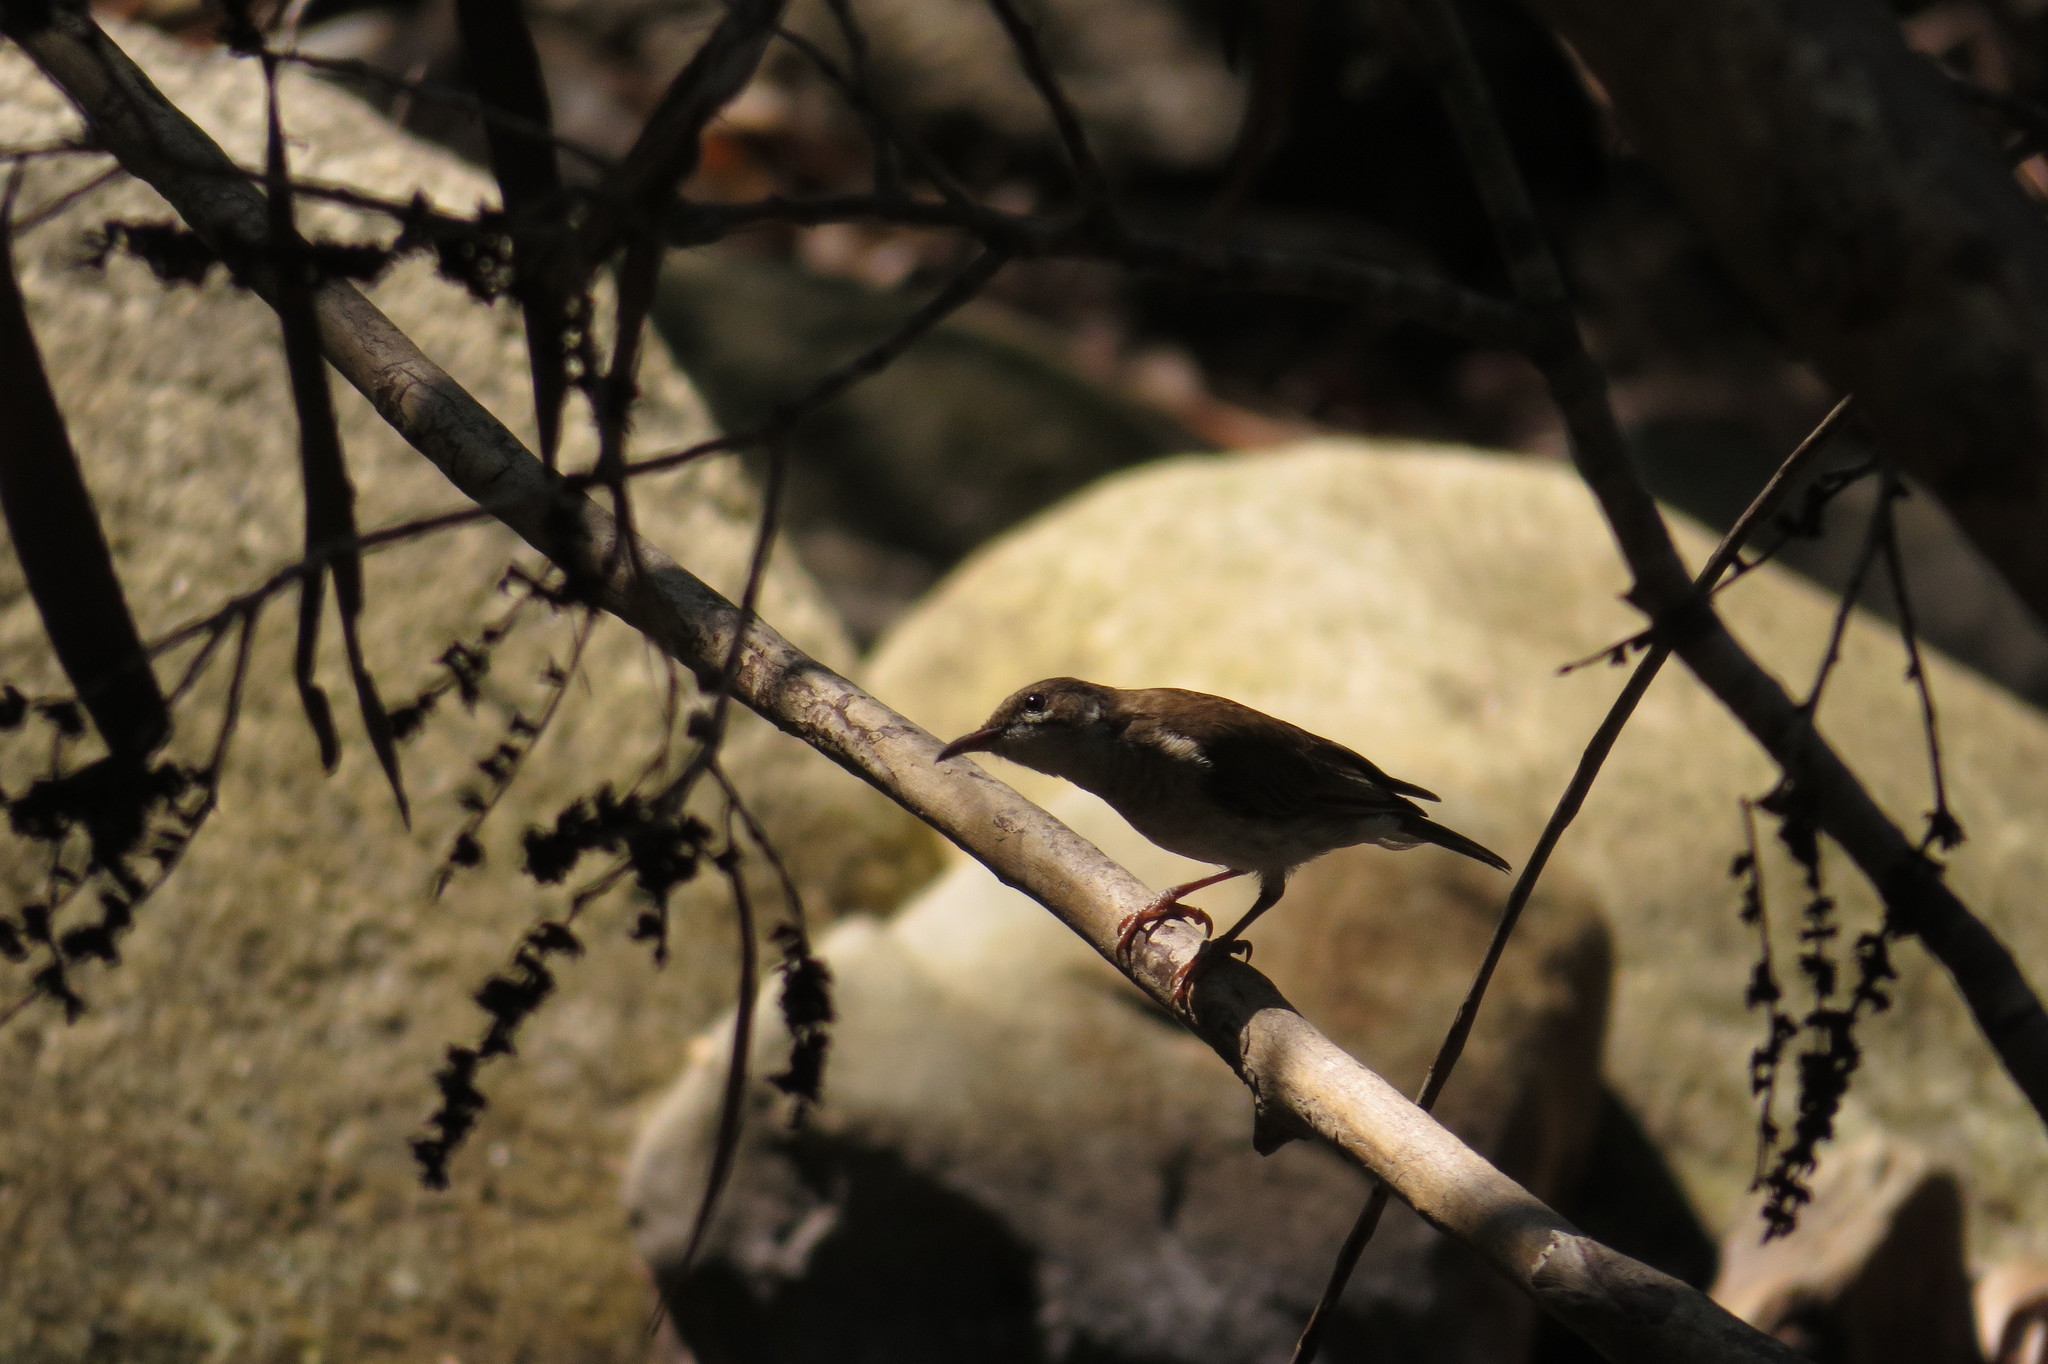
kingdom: Animalia
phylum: Chordata
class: Aves
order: Passeriformes
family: Meliphagidae
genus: Ramsayornis
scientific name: Ramsayornis modestus
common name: Brown-backed honeyeater
